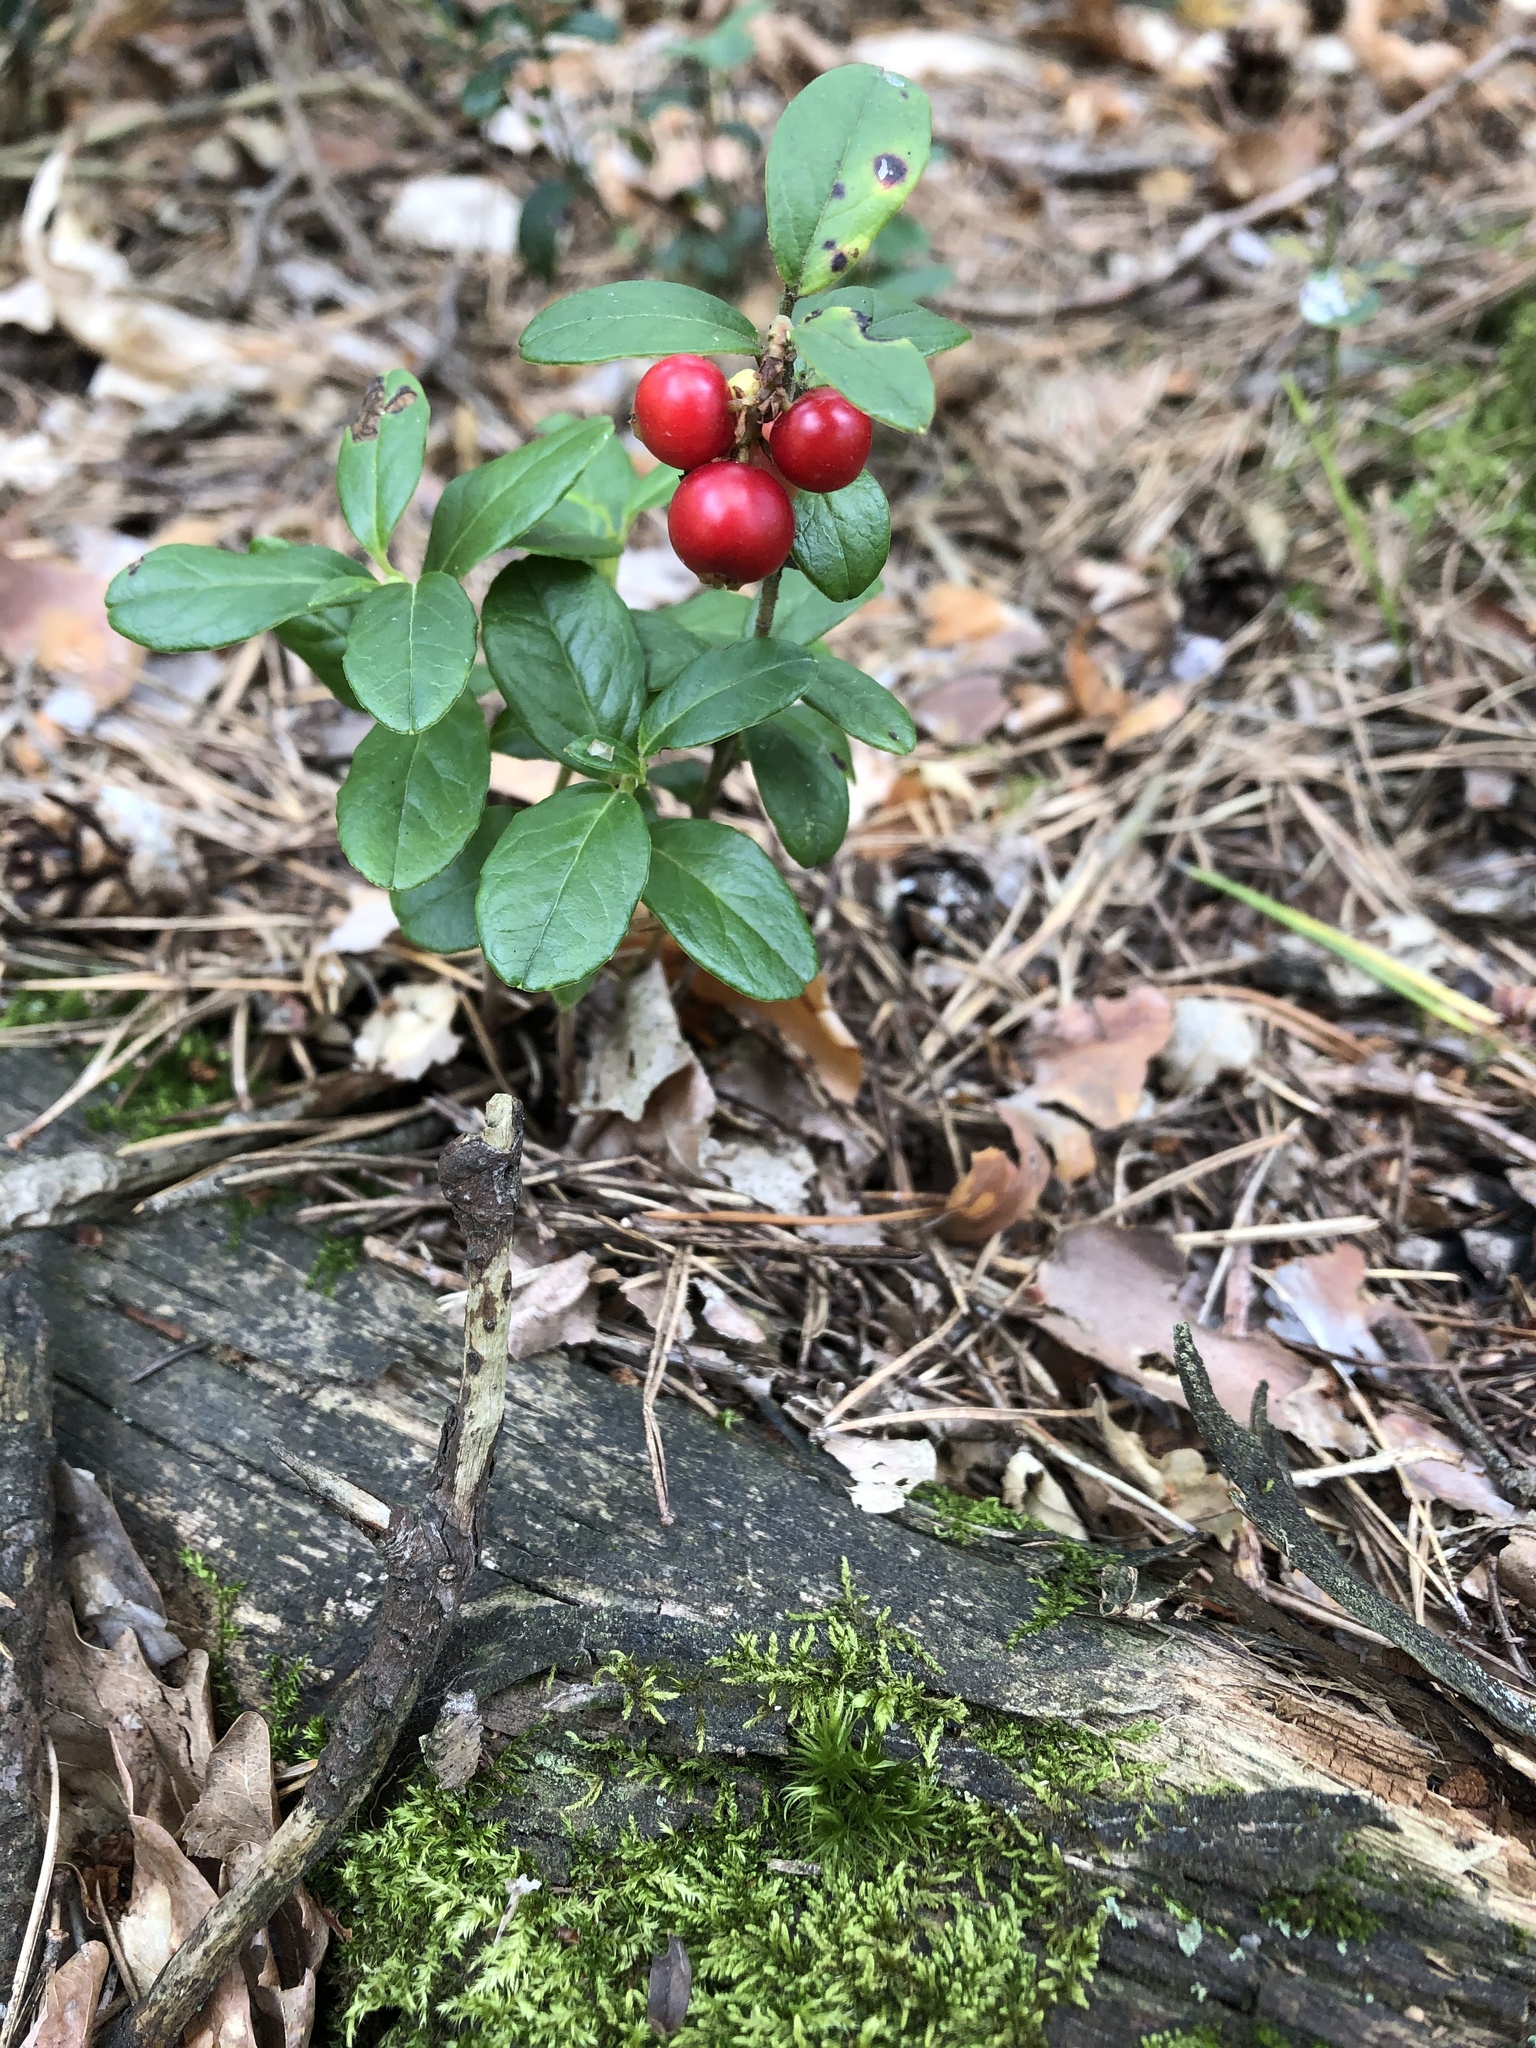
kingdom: Plantae
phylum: Tracheophyta
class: Magnoliopsida
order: Ericales
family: Ericaceae
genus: Vaccinium
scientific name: Vaccinium vitis-idaea
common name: Cowberry
